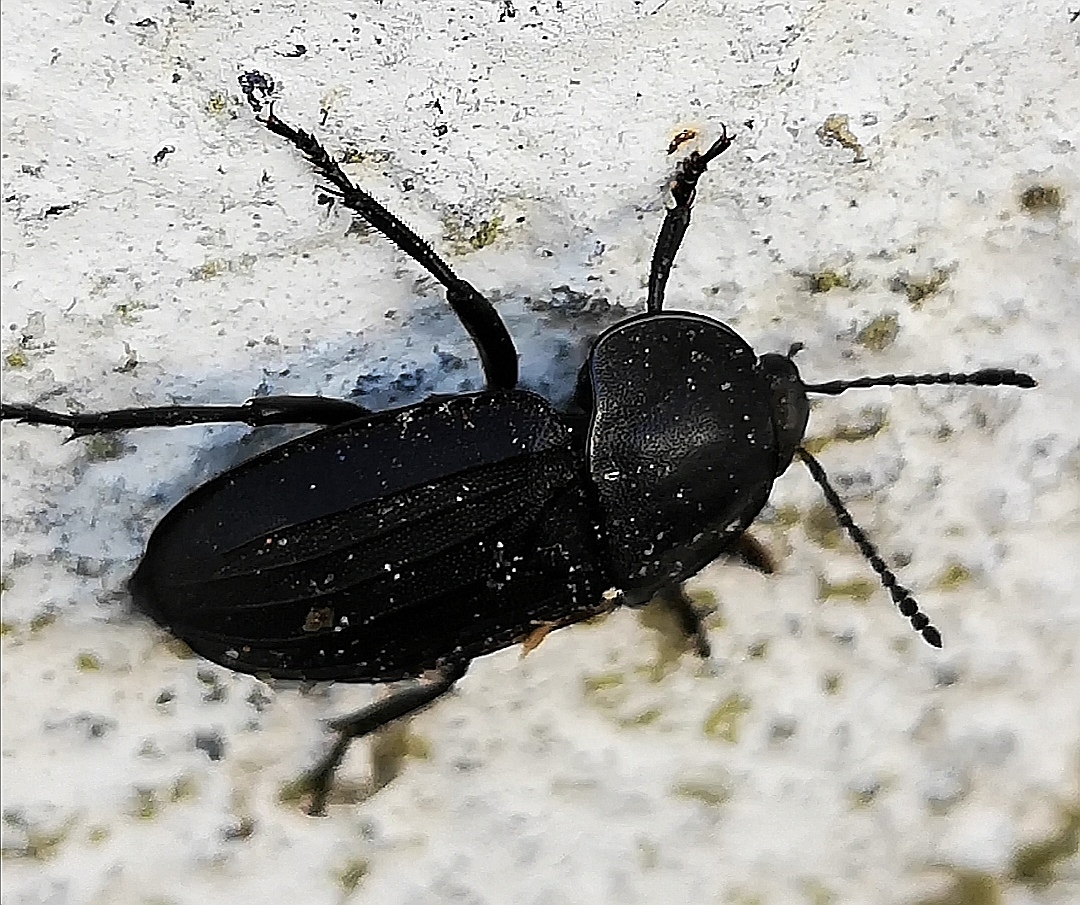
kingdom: Animalia
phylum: Arthropoda
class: Insecta
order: Coleoptera
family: Staphylinidae
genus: Silpha
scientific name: Silpha tristis
